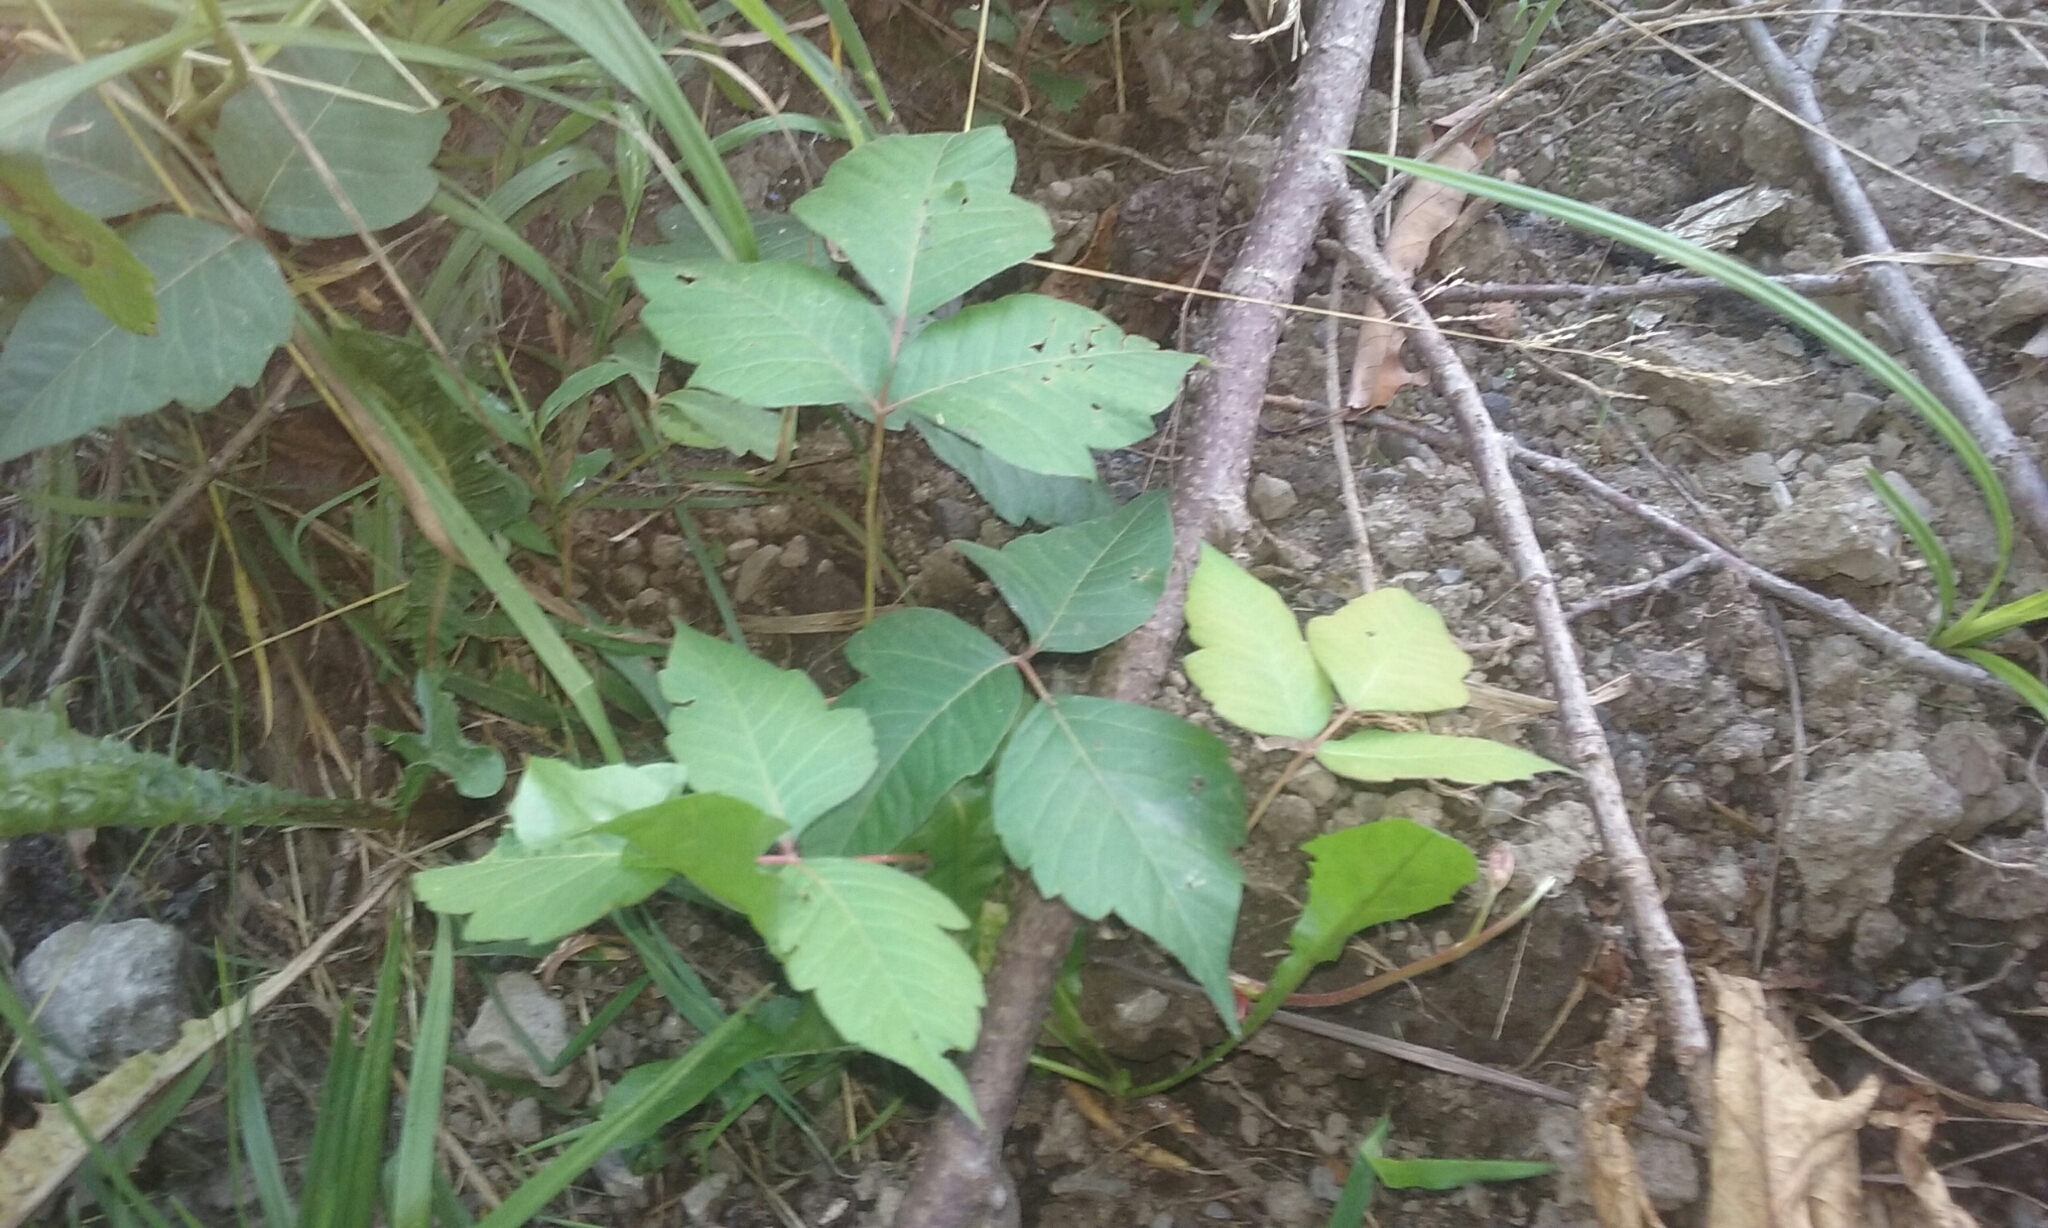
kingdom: Plantae
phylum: Tracheophyta
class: Magnoliopsida
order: Sapindales
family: Anacardiaceae
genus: Toxicodendron
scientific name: Toxicodendron radicans
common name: Poison ivy
